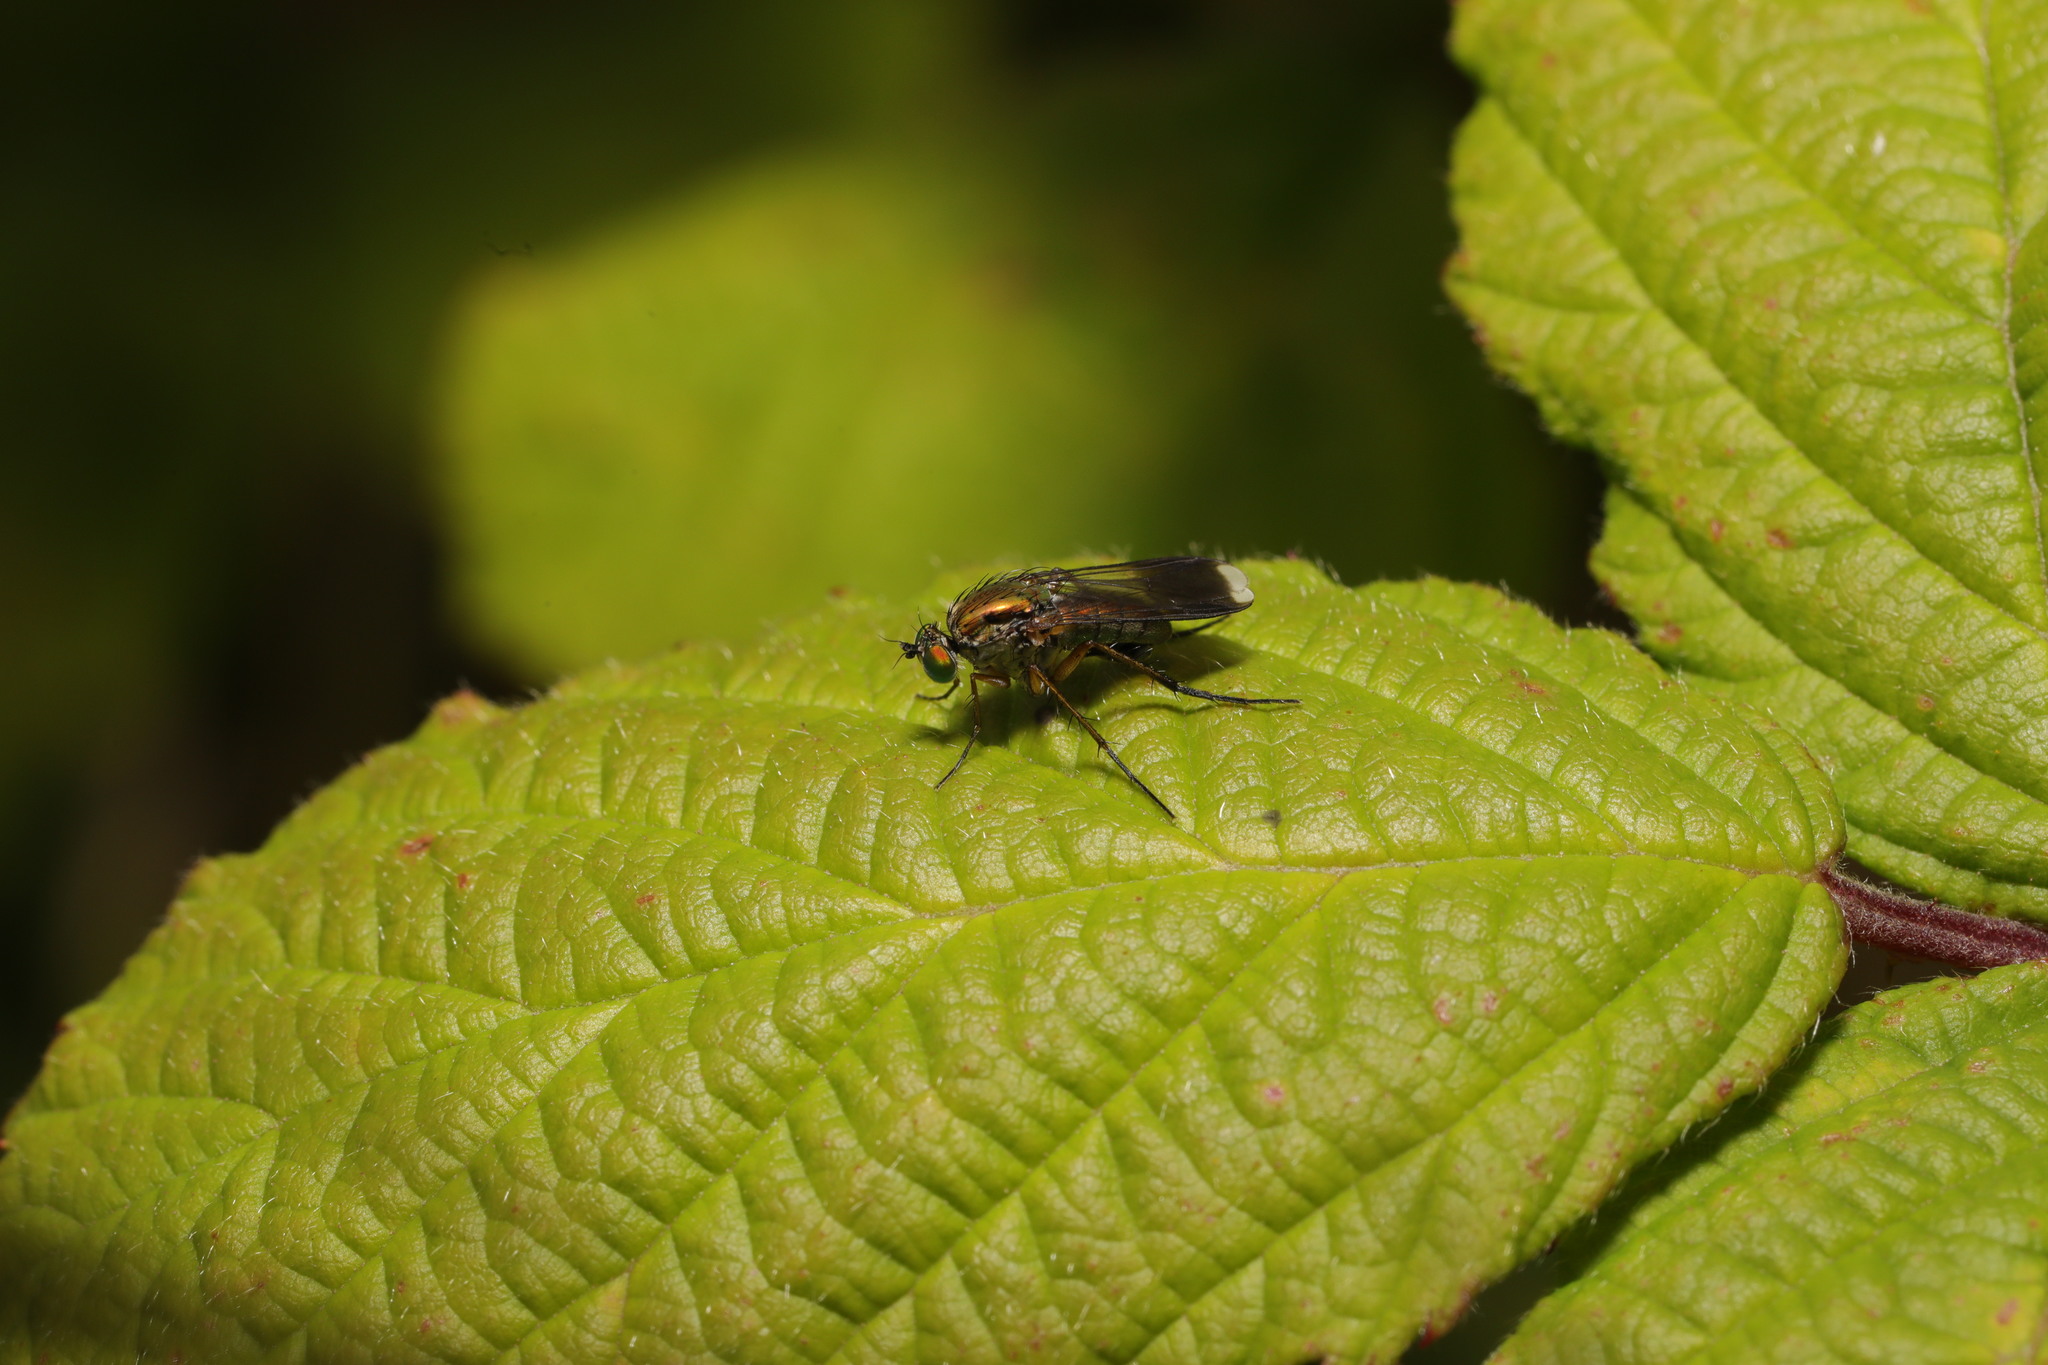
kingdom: Animalia
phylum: Arthropoda
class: Insecta
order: Diptera
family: Dolichopodidae
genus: Poecilobothrus
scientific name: Poecilobothrus nobilitatus
